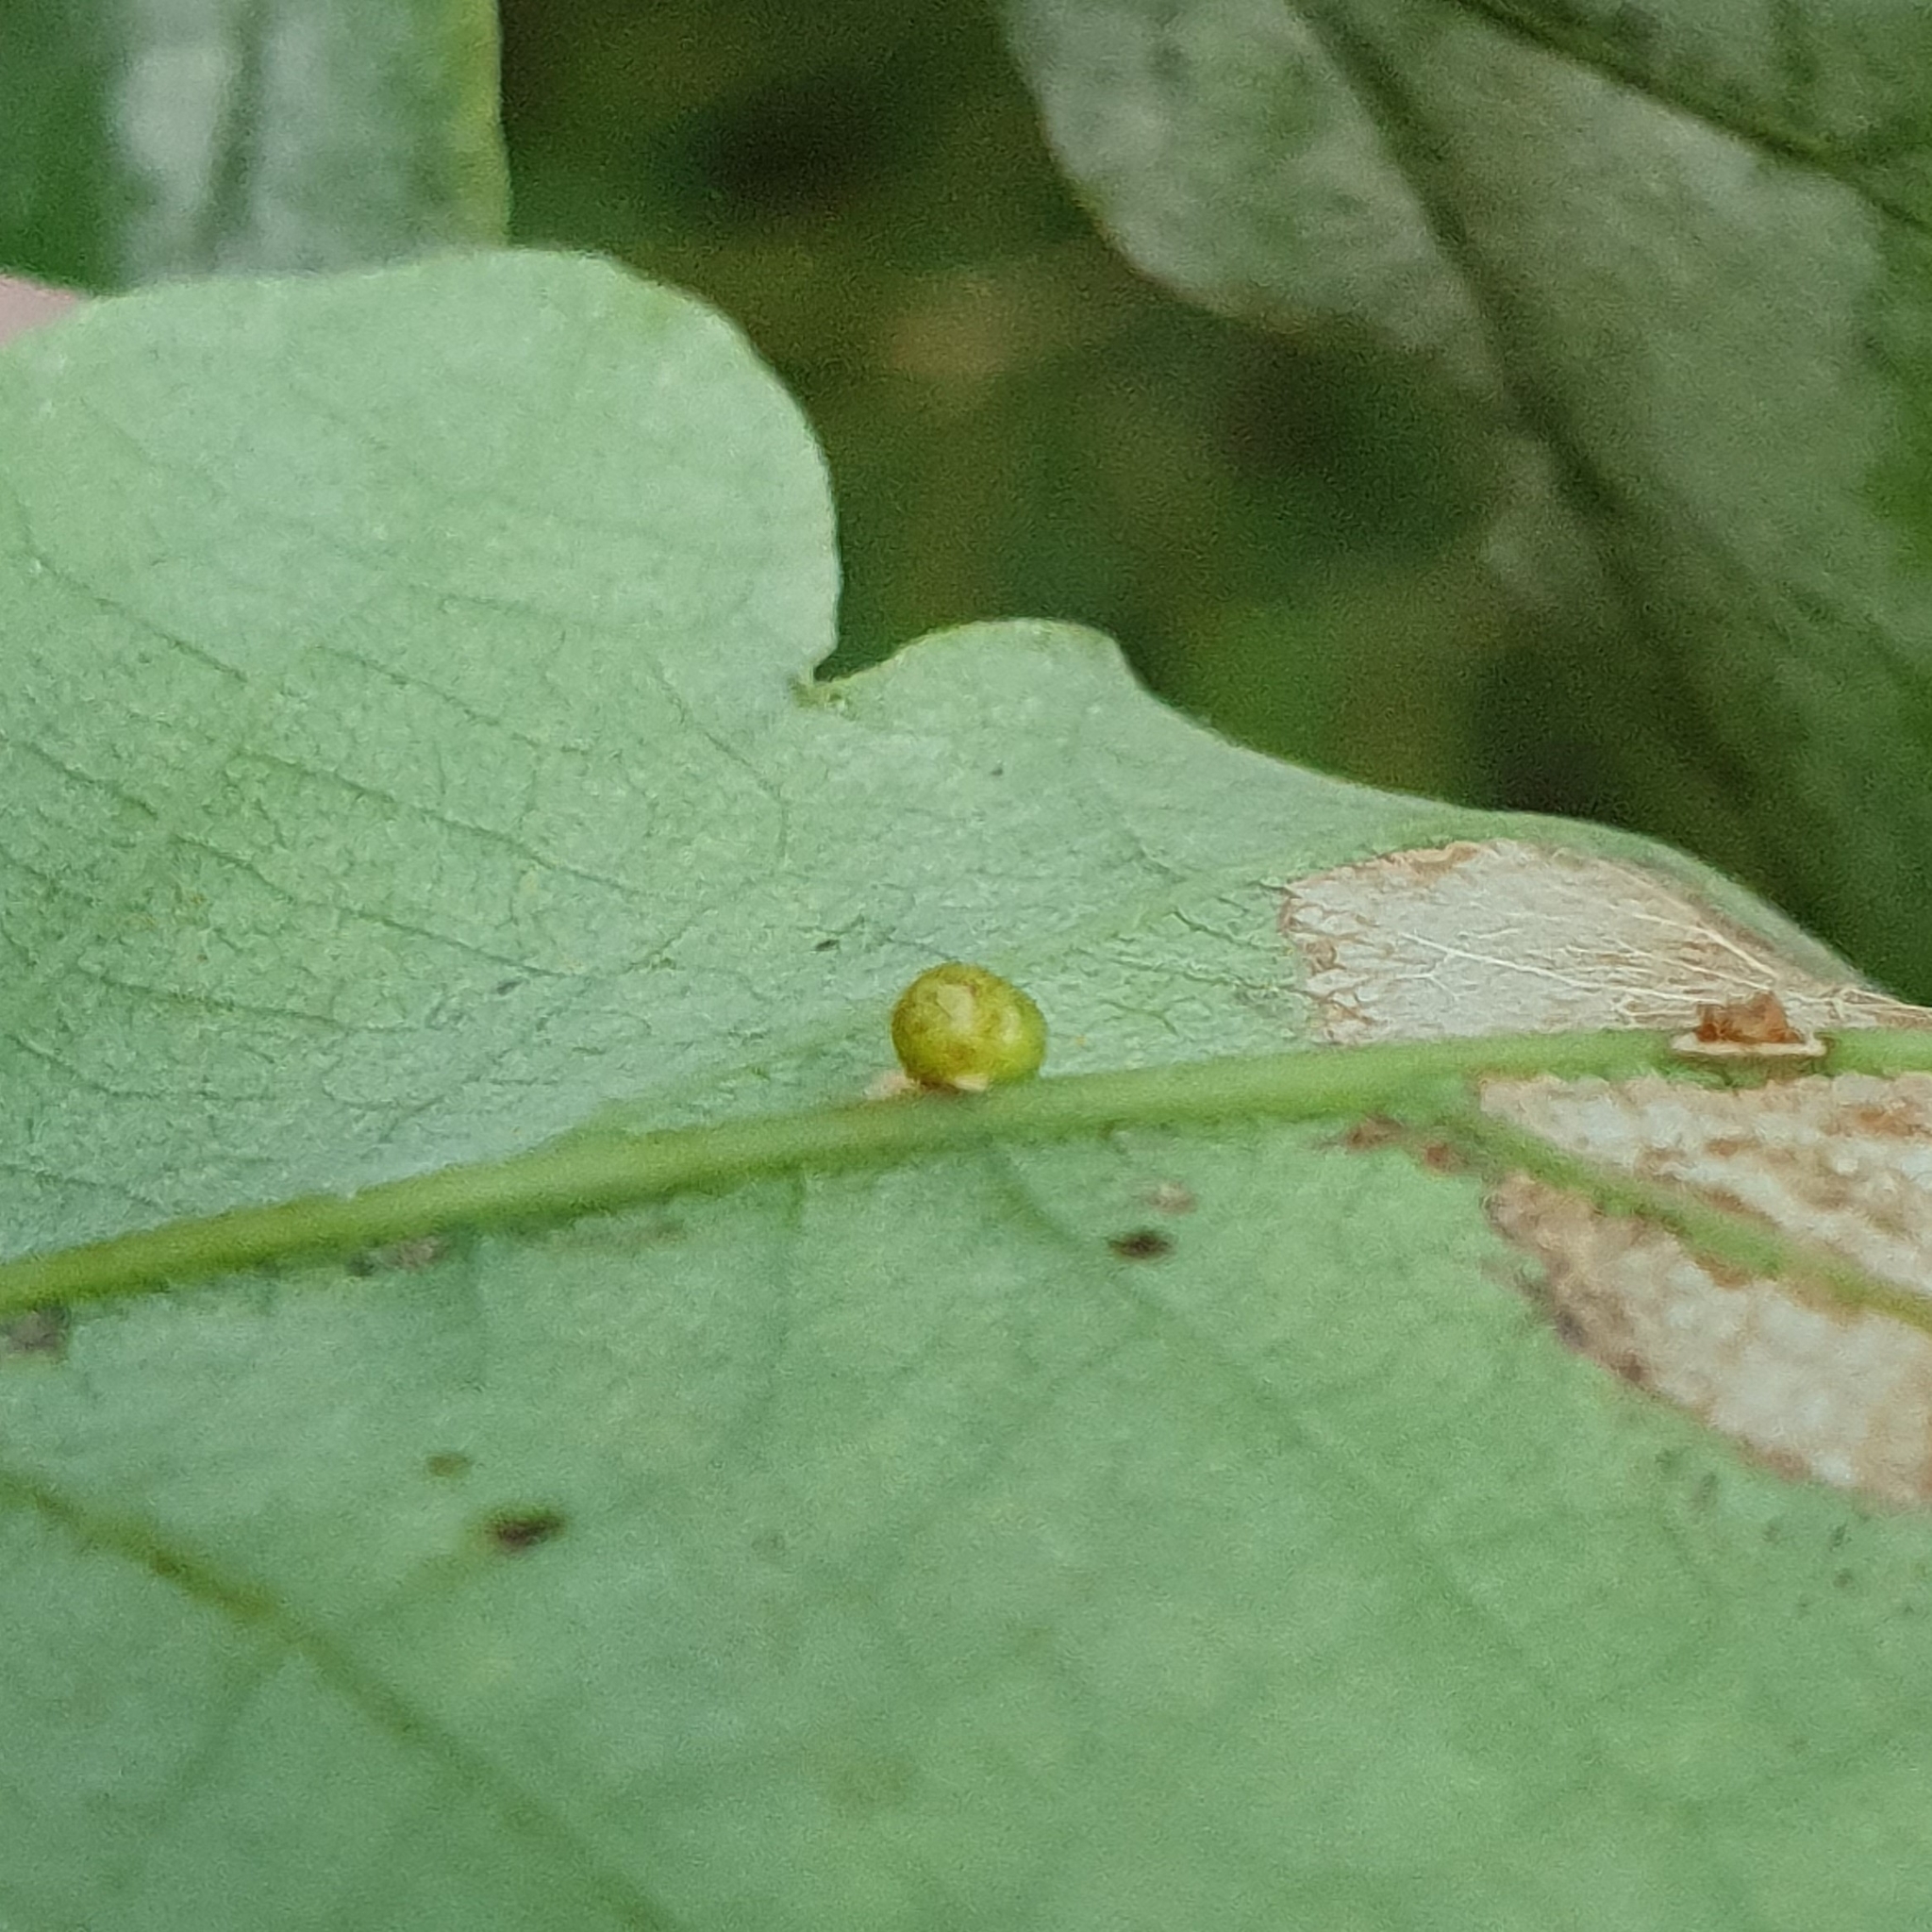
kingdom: Animalia
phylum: Arthropoda
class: Insecta
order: Hymenoptera
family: Cynipidae
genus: Neuroterus
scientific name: Neuroterus anthracinus
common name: Oyster gall
